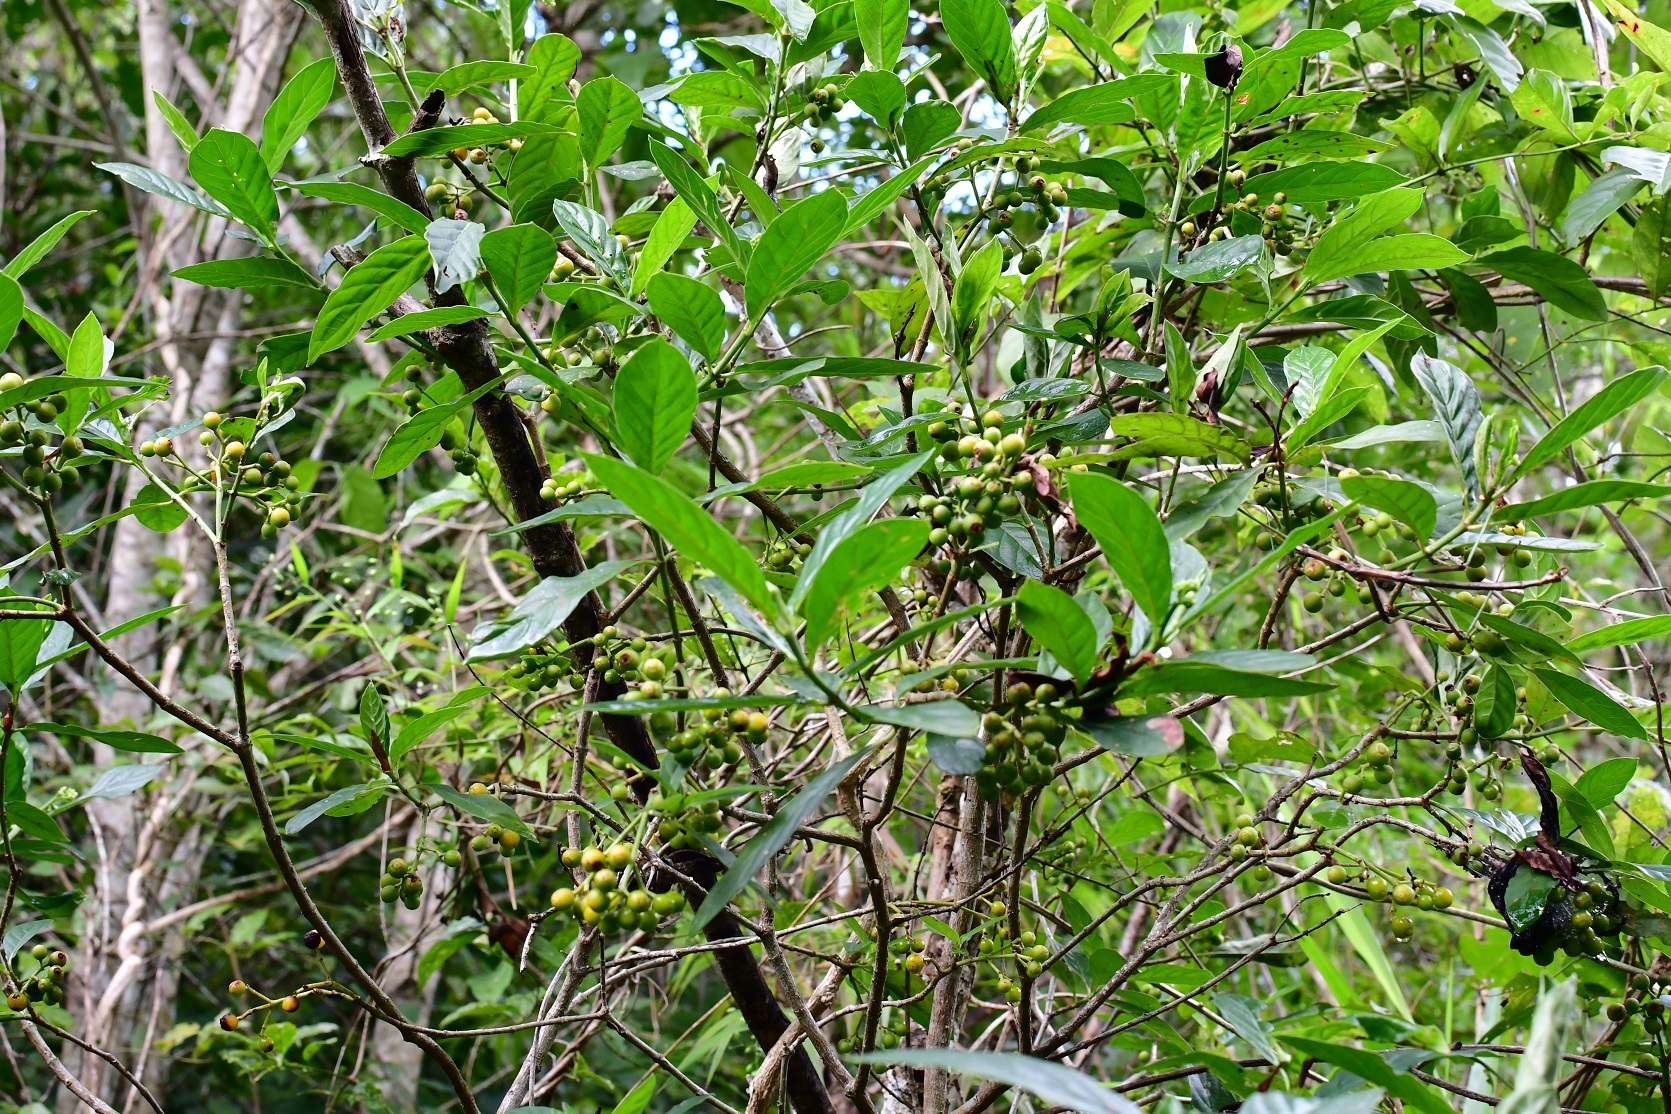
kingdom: Plantae
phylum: Tracheophyta
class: Magnoliopsida
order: Gentianales
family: Rubiaceae
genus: Psychotria
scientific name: Psychotria costivenia
